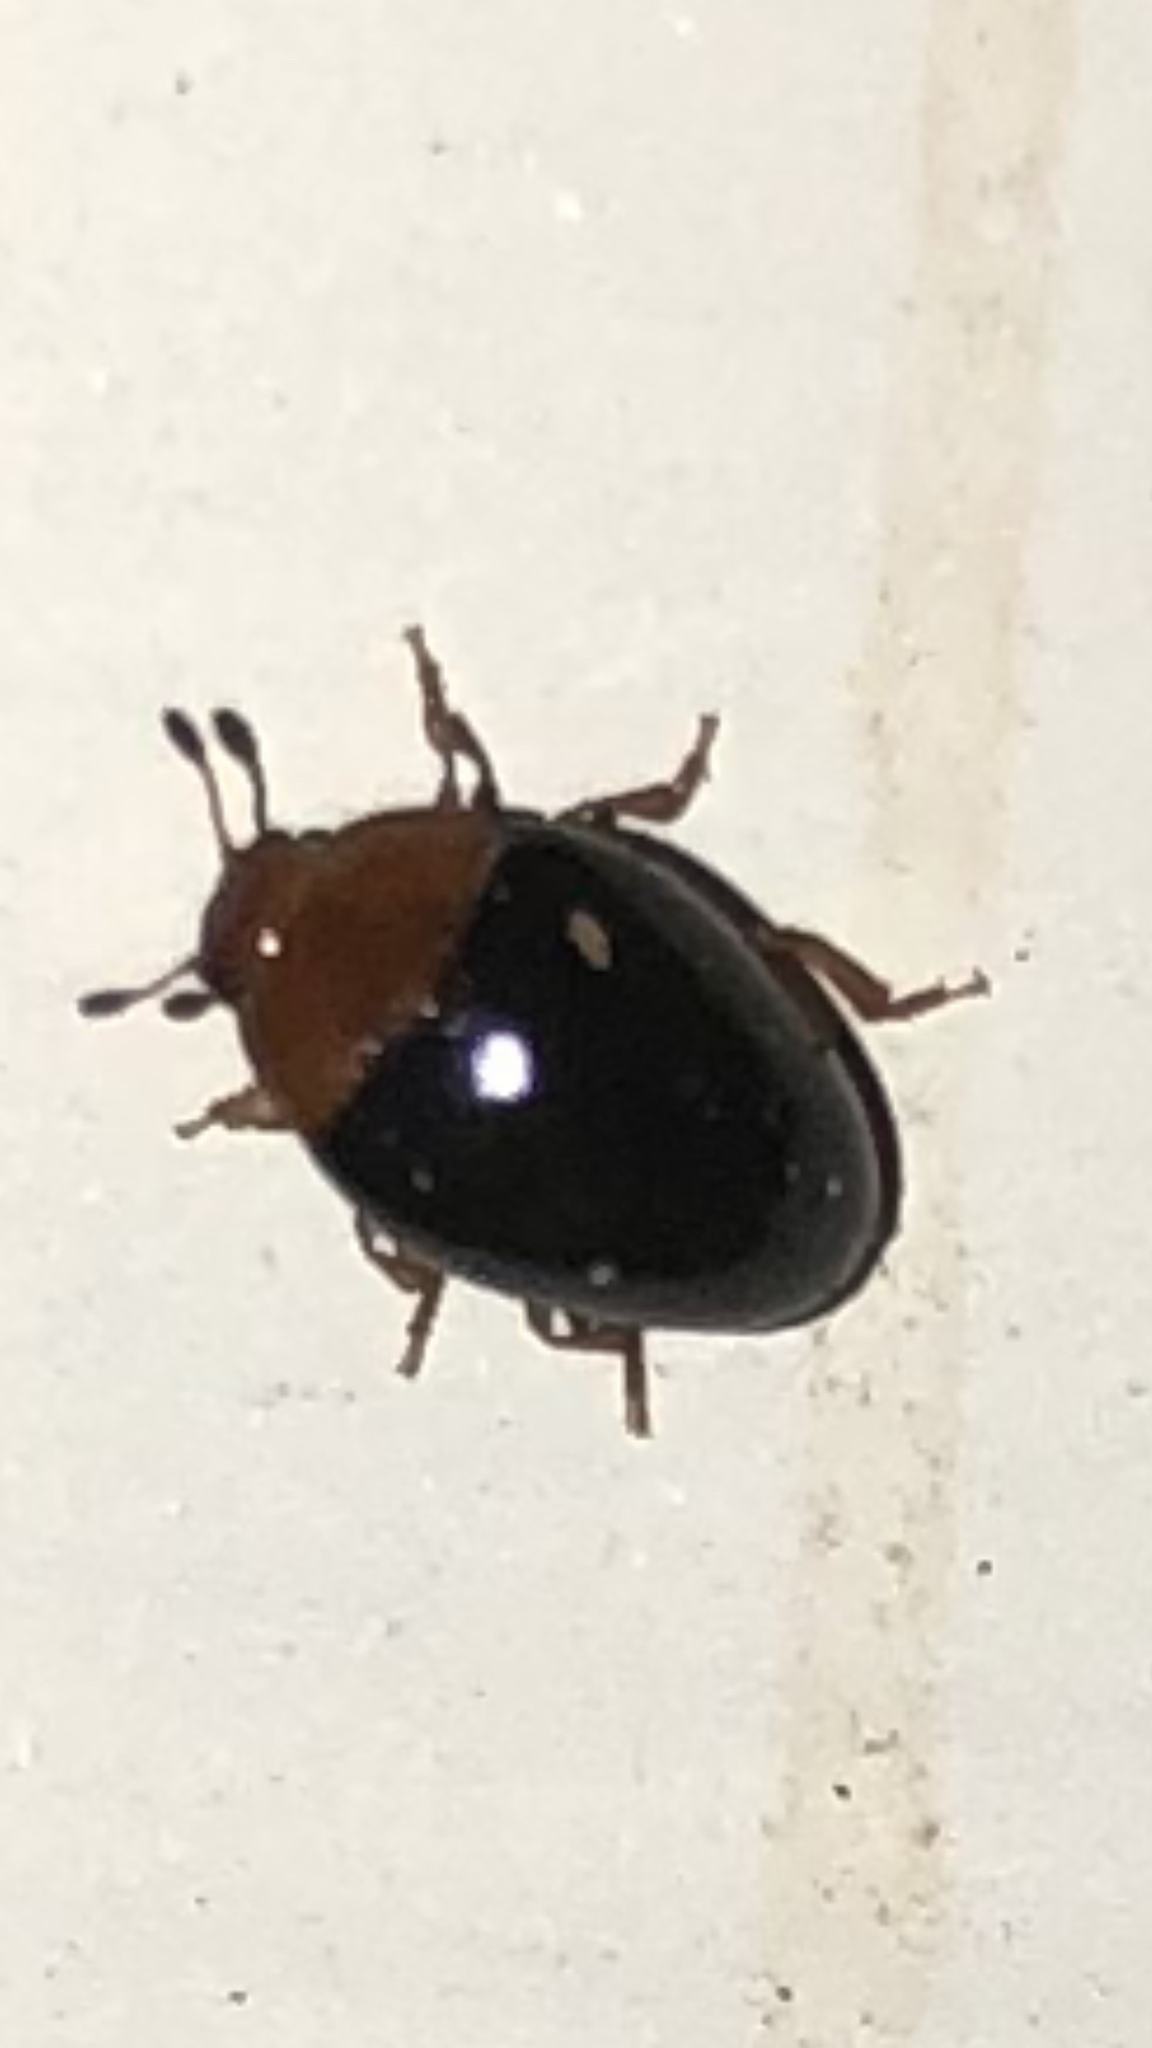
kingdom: Animalia
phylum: Arthropoda
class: Insecta
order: Coleoptera
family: Erotylidae
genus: Tritoma
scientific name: Tritoma
